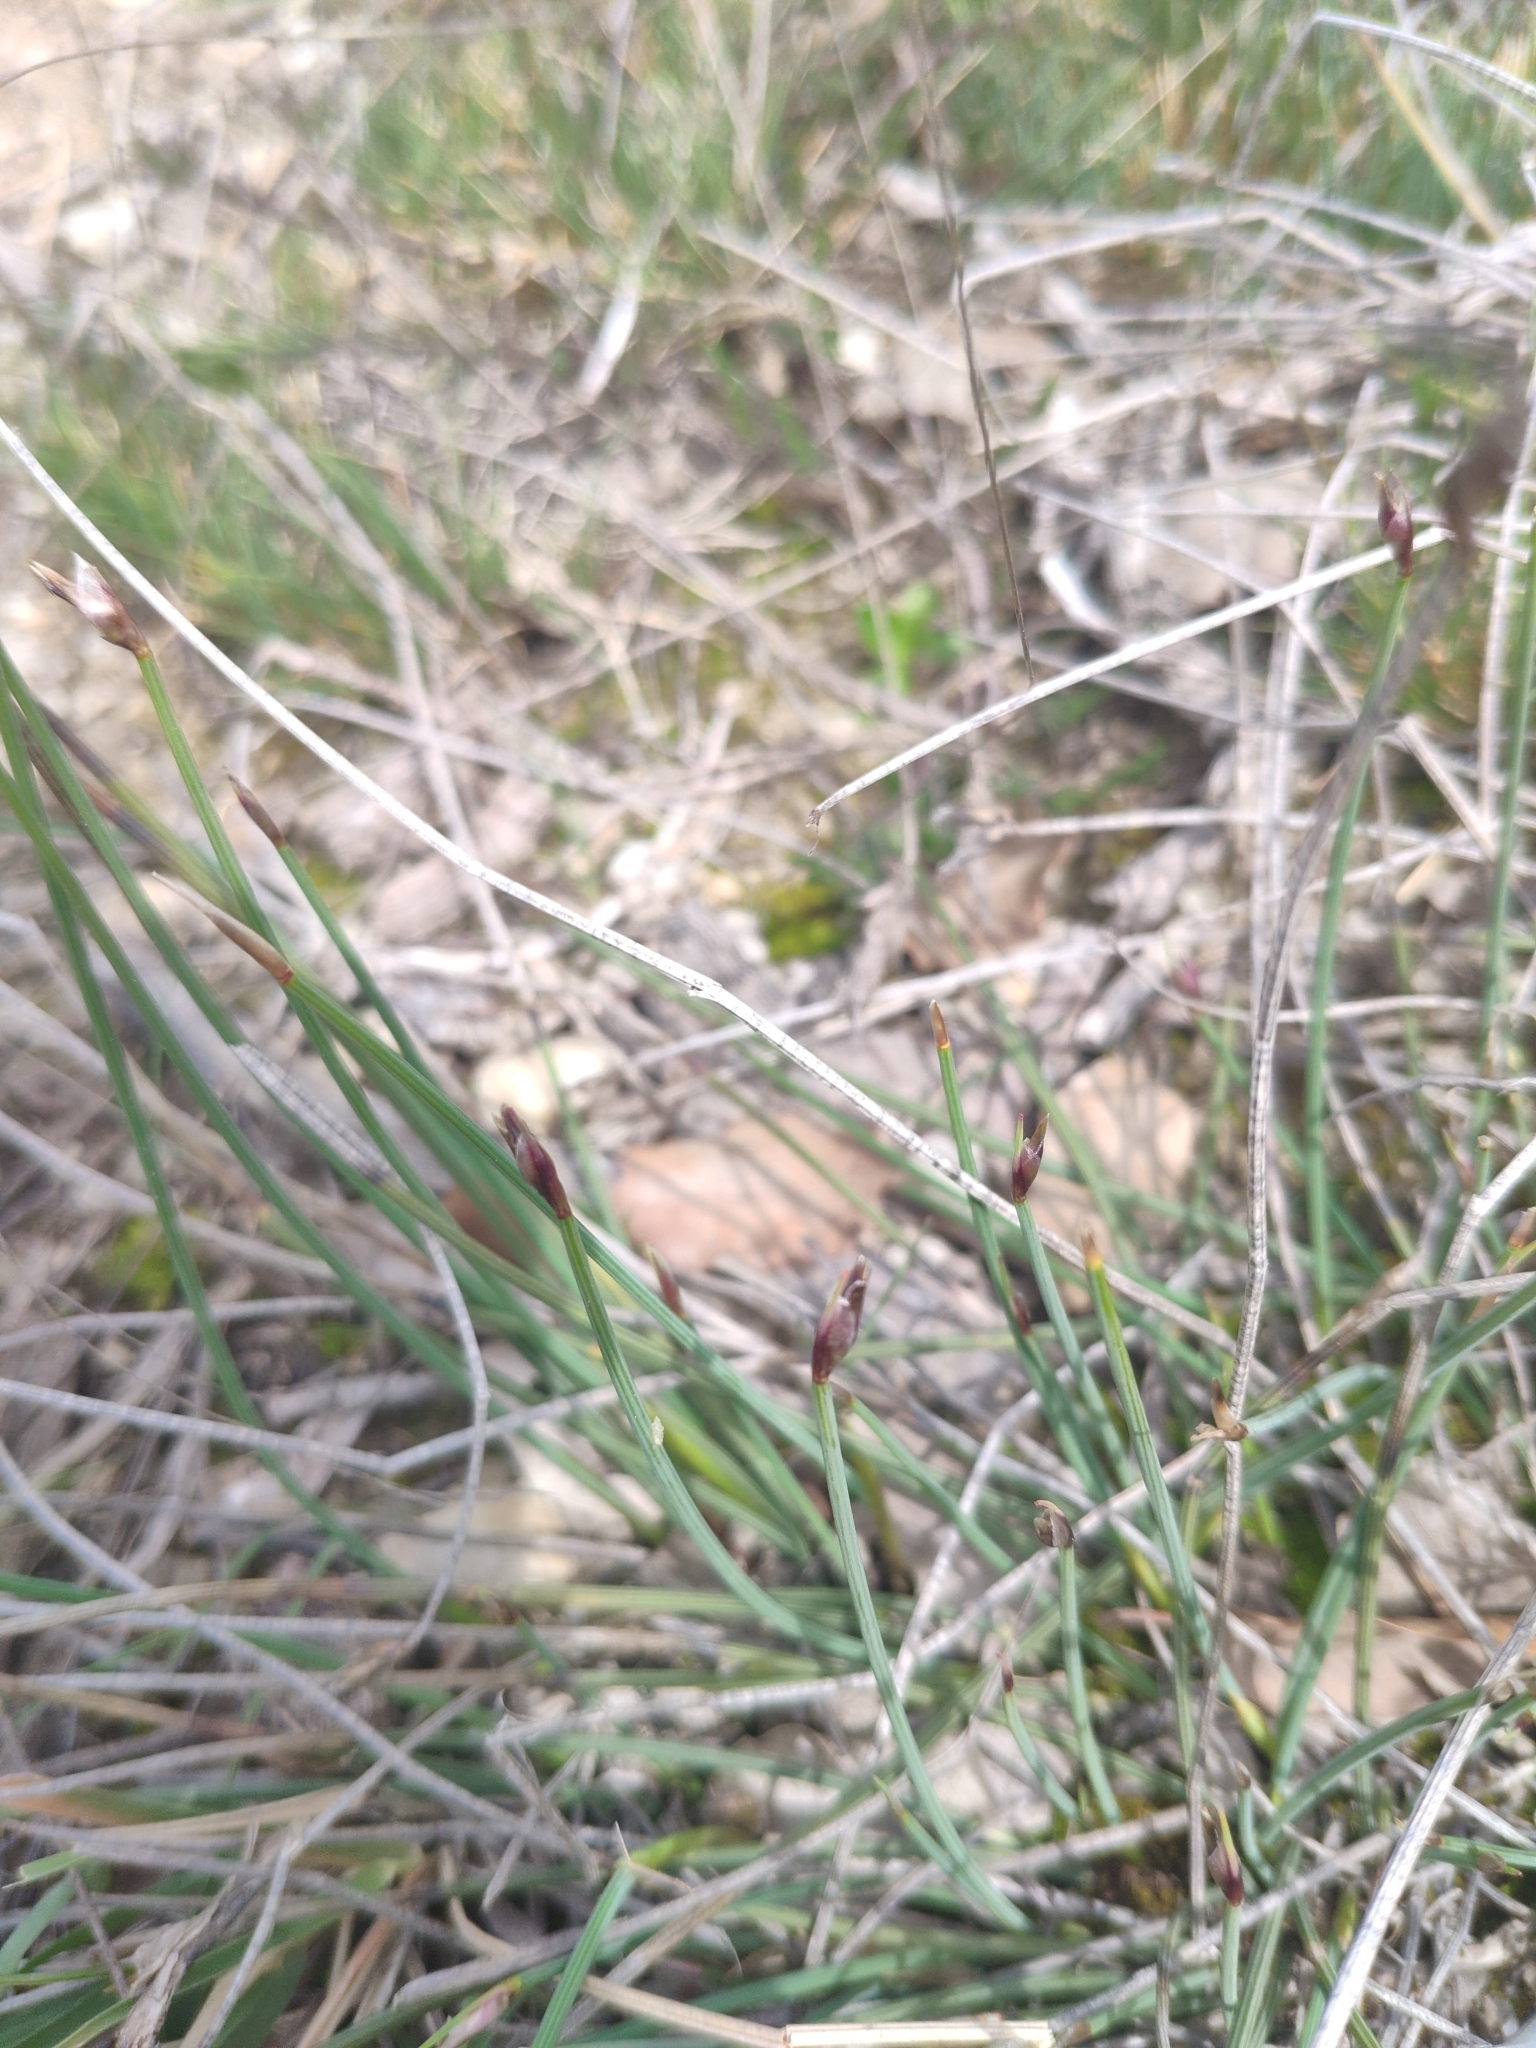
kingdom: Plantae
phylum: Tracheophyta
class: Liliopsida
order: Asparagales
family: Asparagaceae
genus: Aphyllanthes
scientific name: Aphyllanthes monspeliensis
